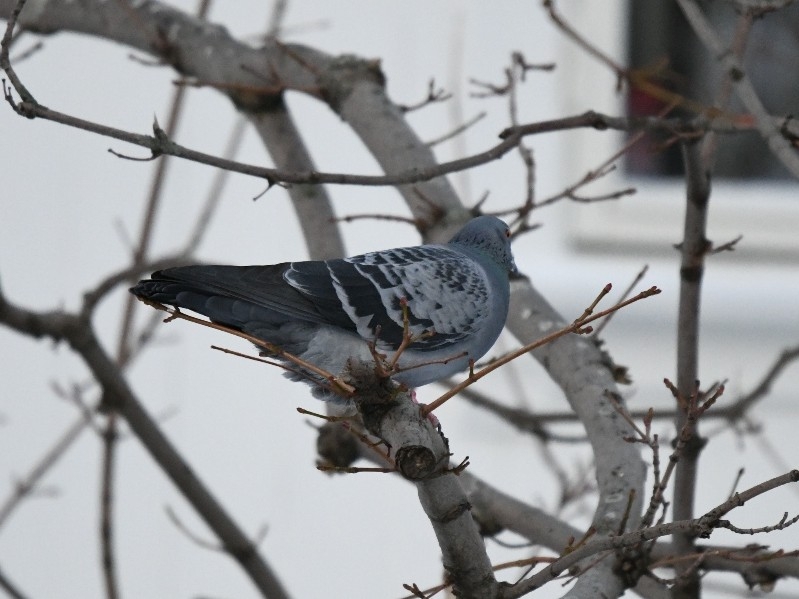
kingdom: Animalia
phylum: Chordata
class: Aves
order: Columbiformes
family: Columbidae
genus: Columba
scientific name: Columba livia
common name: Rock pigeon
